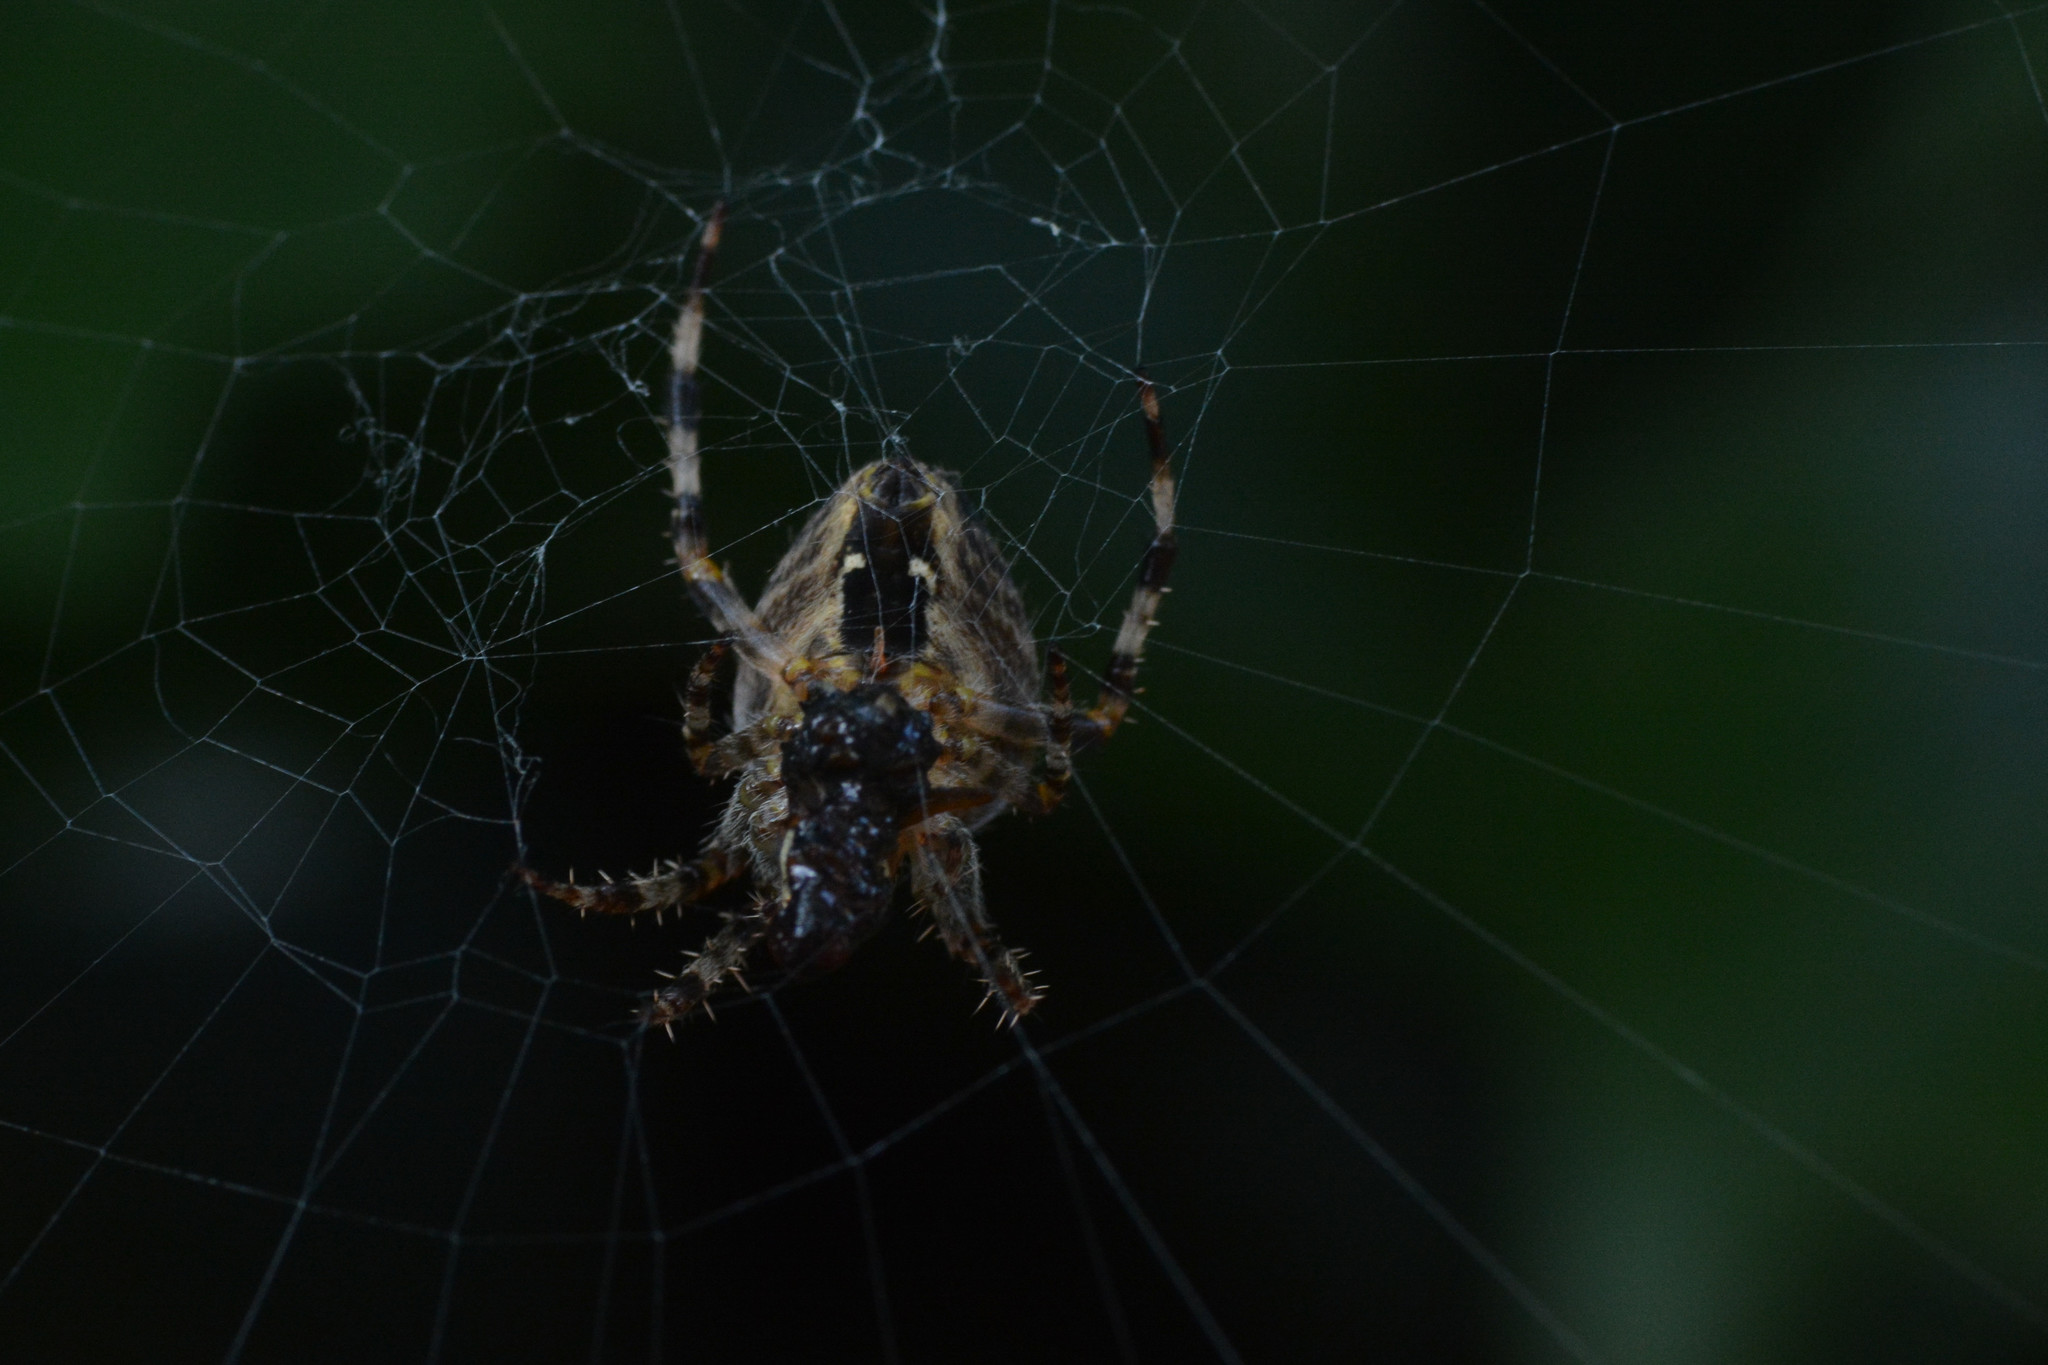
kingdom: Animalia
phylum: Arthropoda
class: Arachnida
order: Araneae
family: Araneidae
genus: Araneus
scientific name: Araneus diadematus
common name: Cross orbweaver
